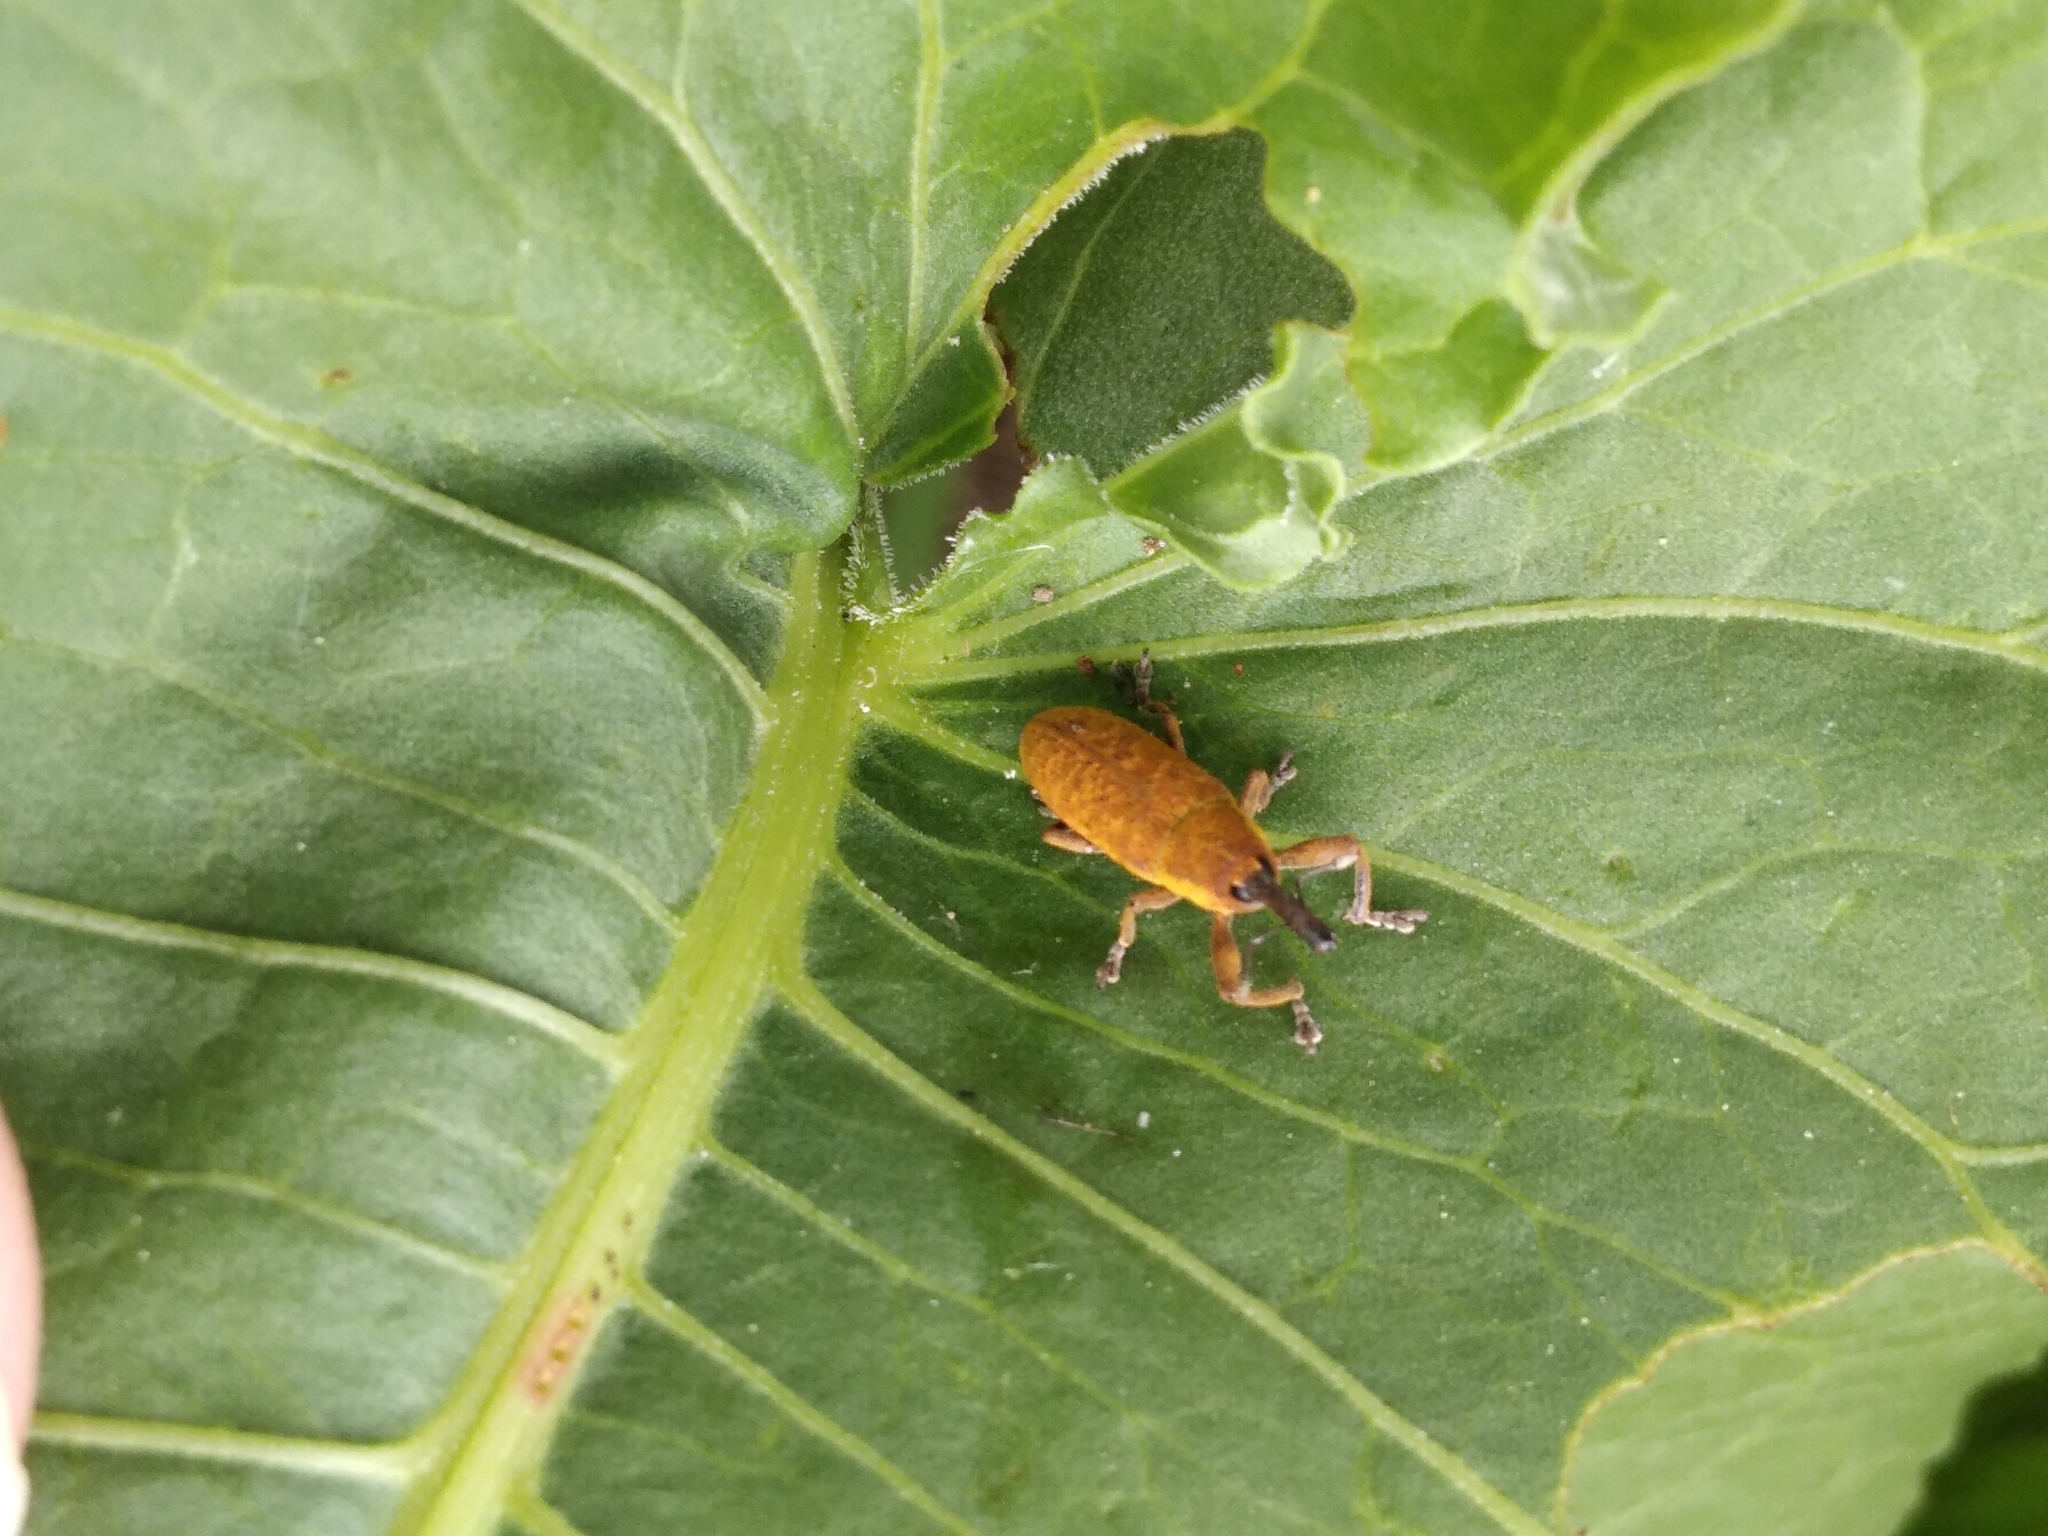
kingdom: Animalia
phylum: Arthropoda
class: Insecta
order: Coleoptera
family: Curculionidae
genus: Lixus
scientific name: Lixus bardanae
